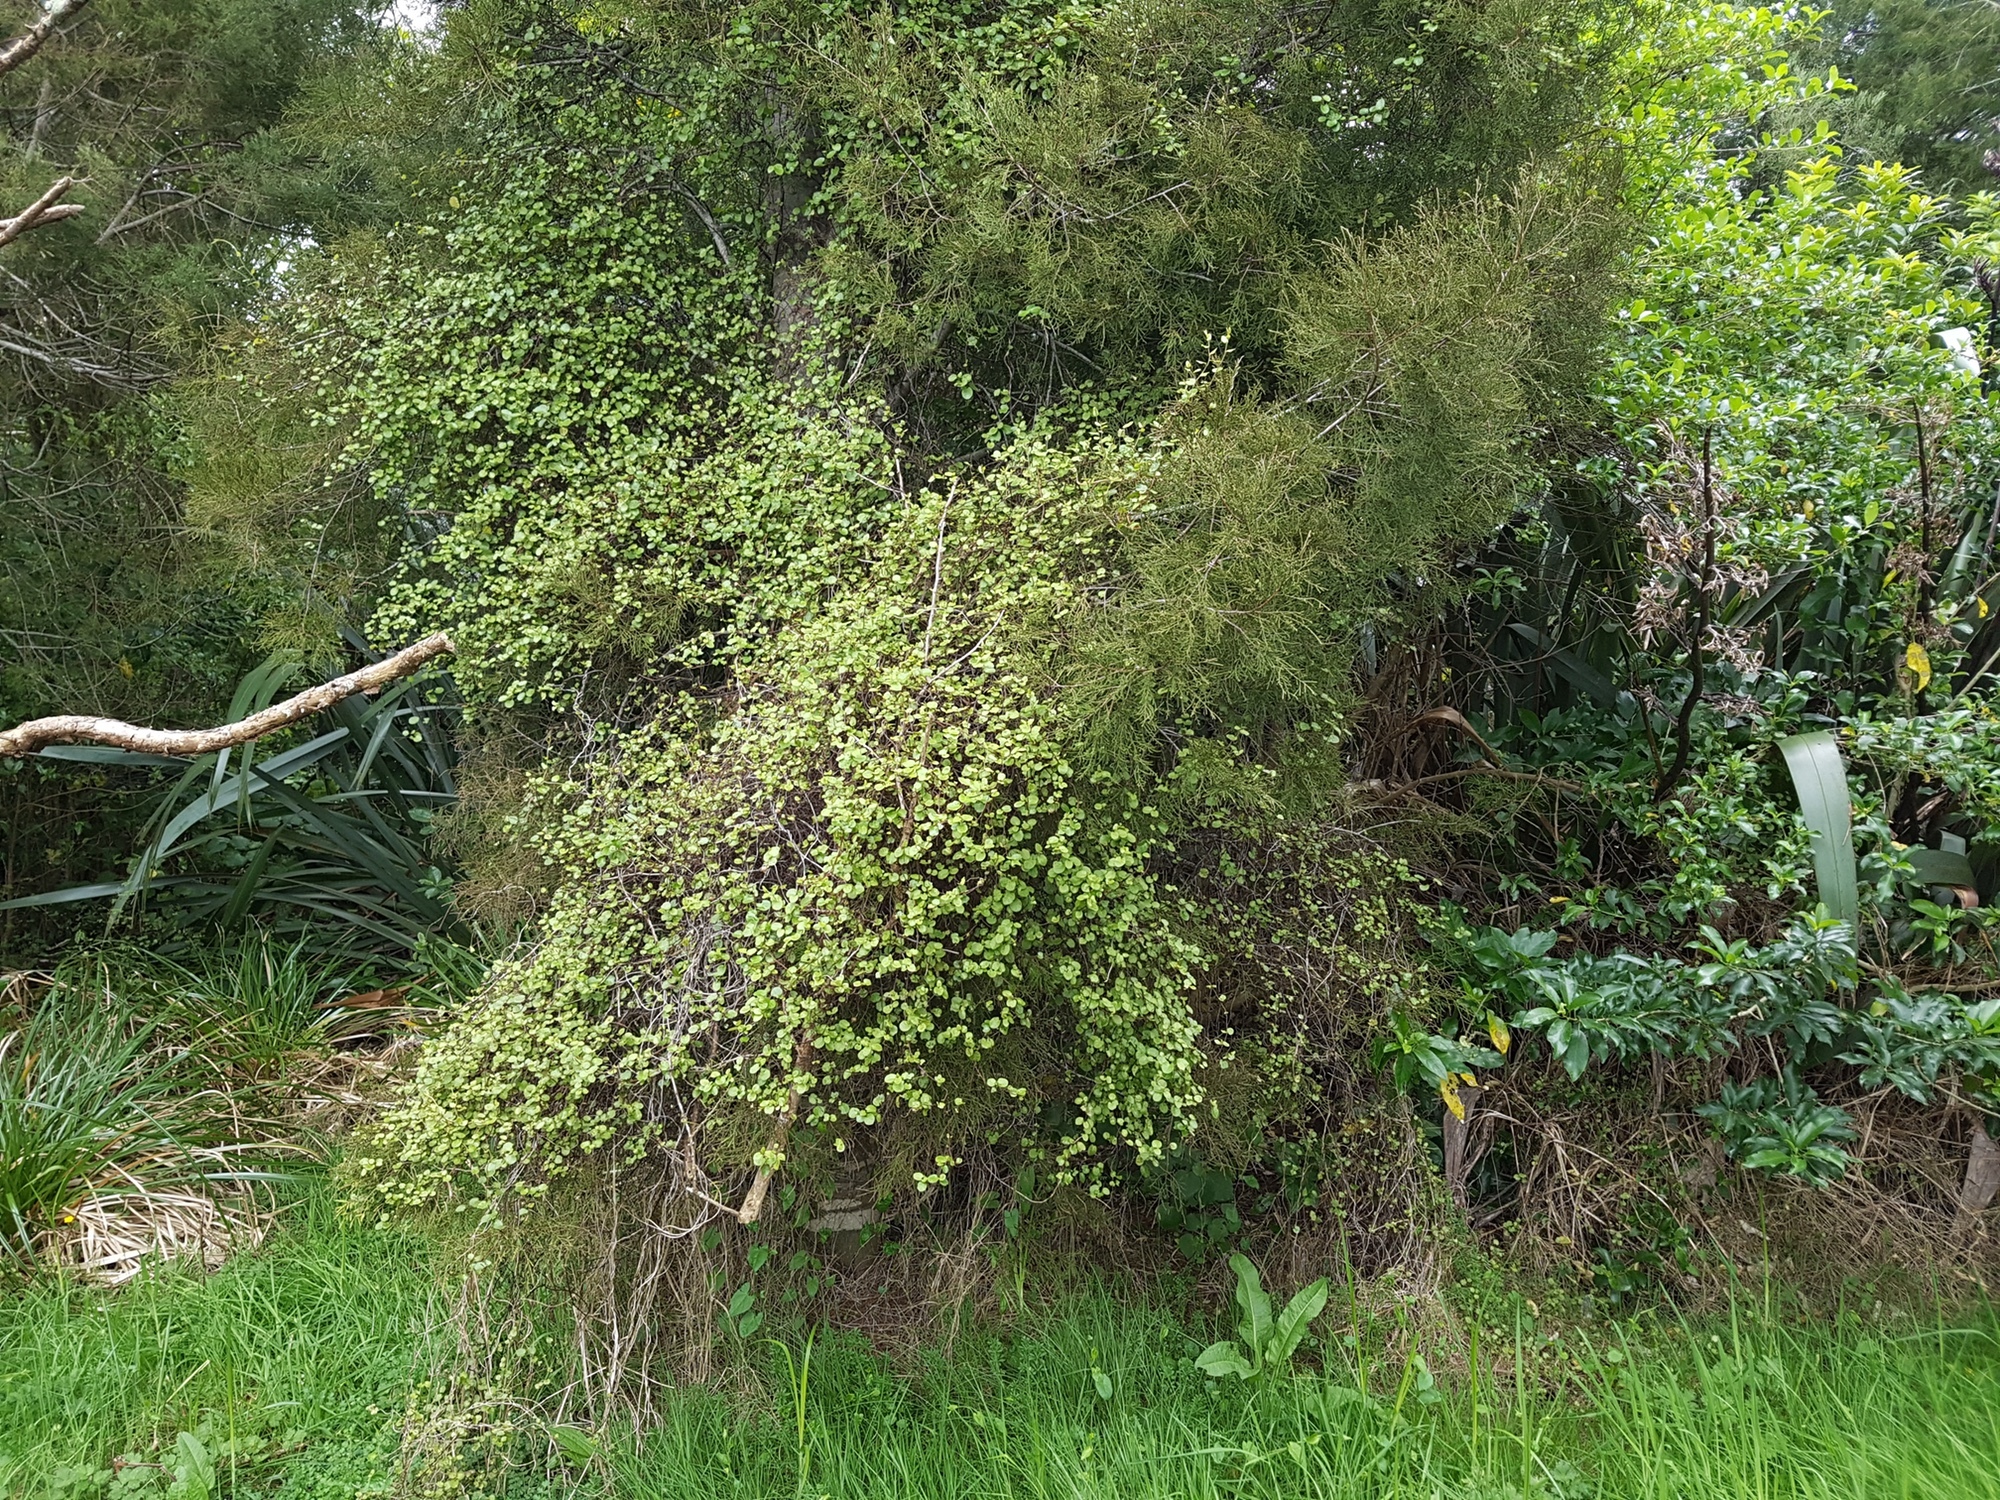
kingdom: Plantae
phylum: Tracheophyta
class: Magnoliopsida
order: Caryophyllales
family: Polygonaceae
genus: Muehlenbeckia
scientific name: Muehlenbeckia complexa
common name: Wireplant
